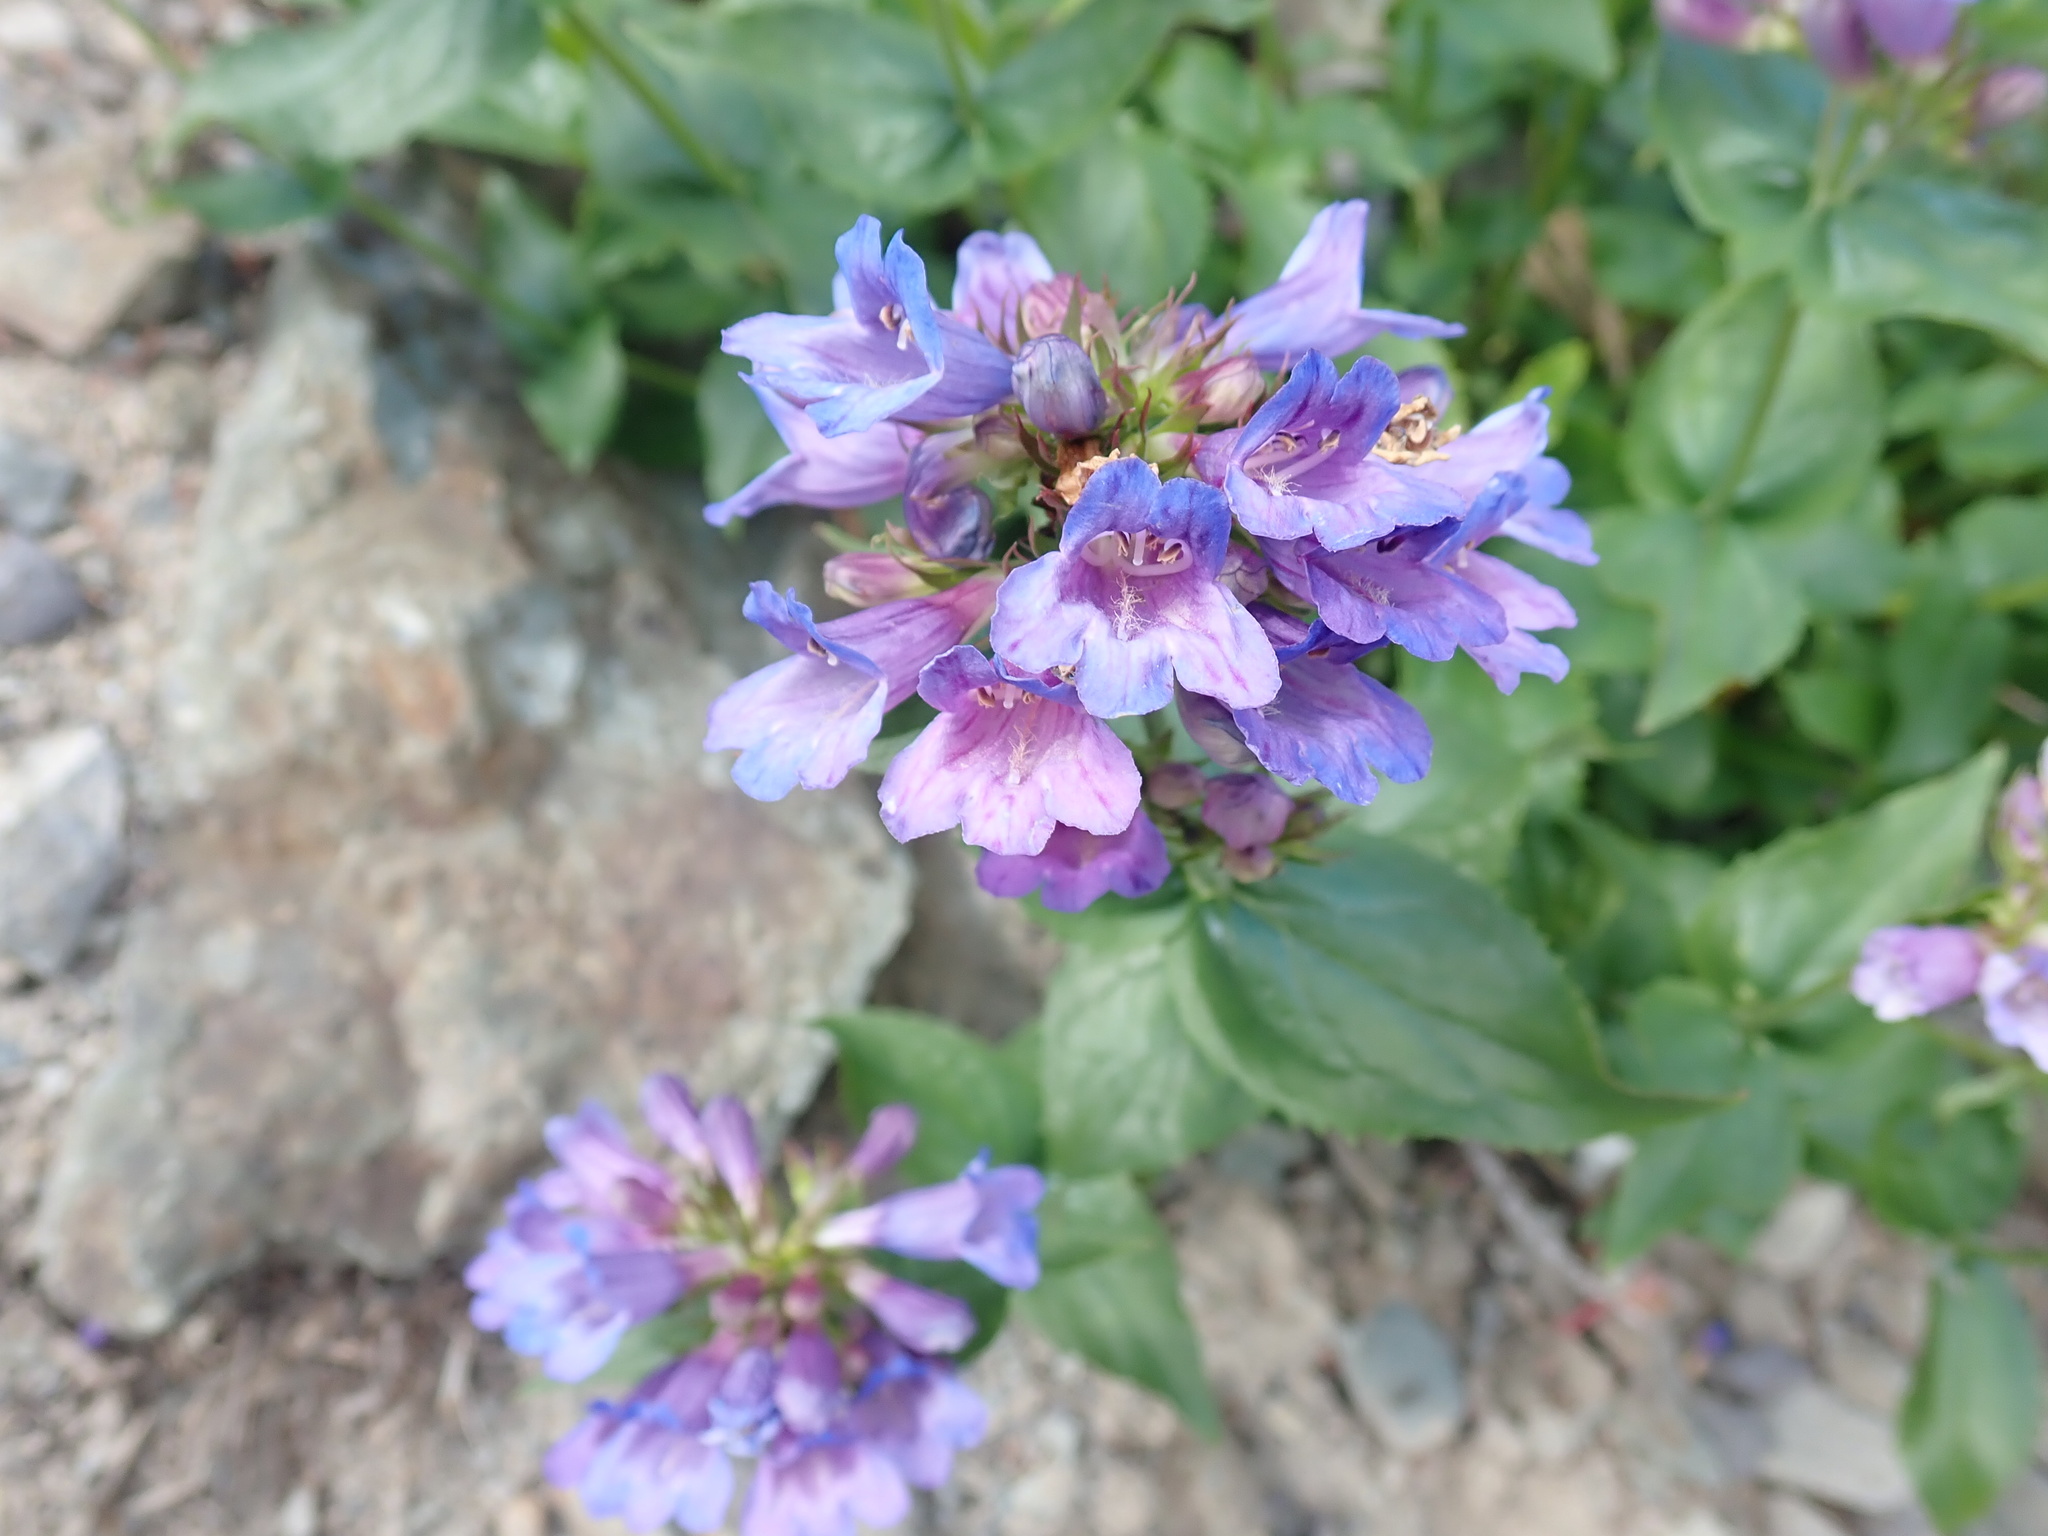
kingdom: Plantae
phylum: Tracheophyta
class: Magnoliopsida
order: Lamiales
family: Plantaginaceae
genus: Penstemon
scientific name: Penstemon serrulatus
